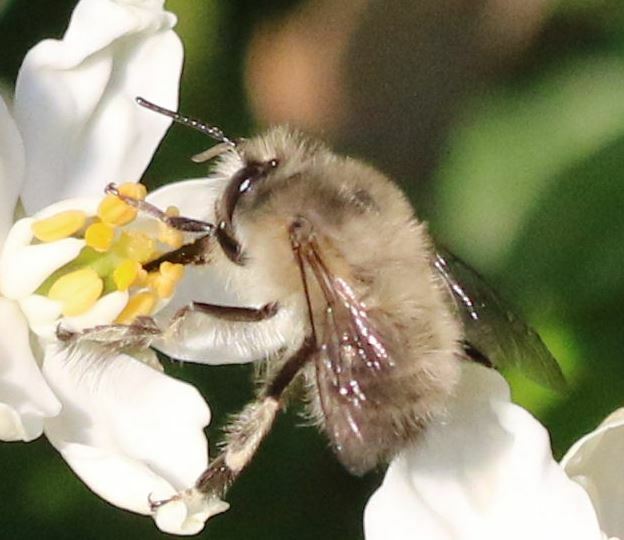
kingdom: Animalia
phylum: Arthropoda
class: Insecta
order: Hymenoptera
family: Apidae
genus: Anthophora
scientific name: Anthophora plumipes
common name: Hairy-footed flower bee
